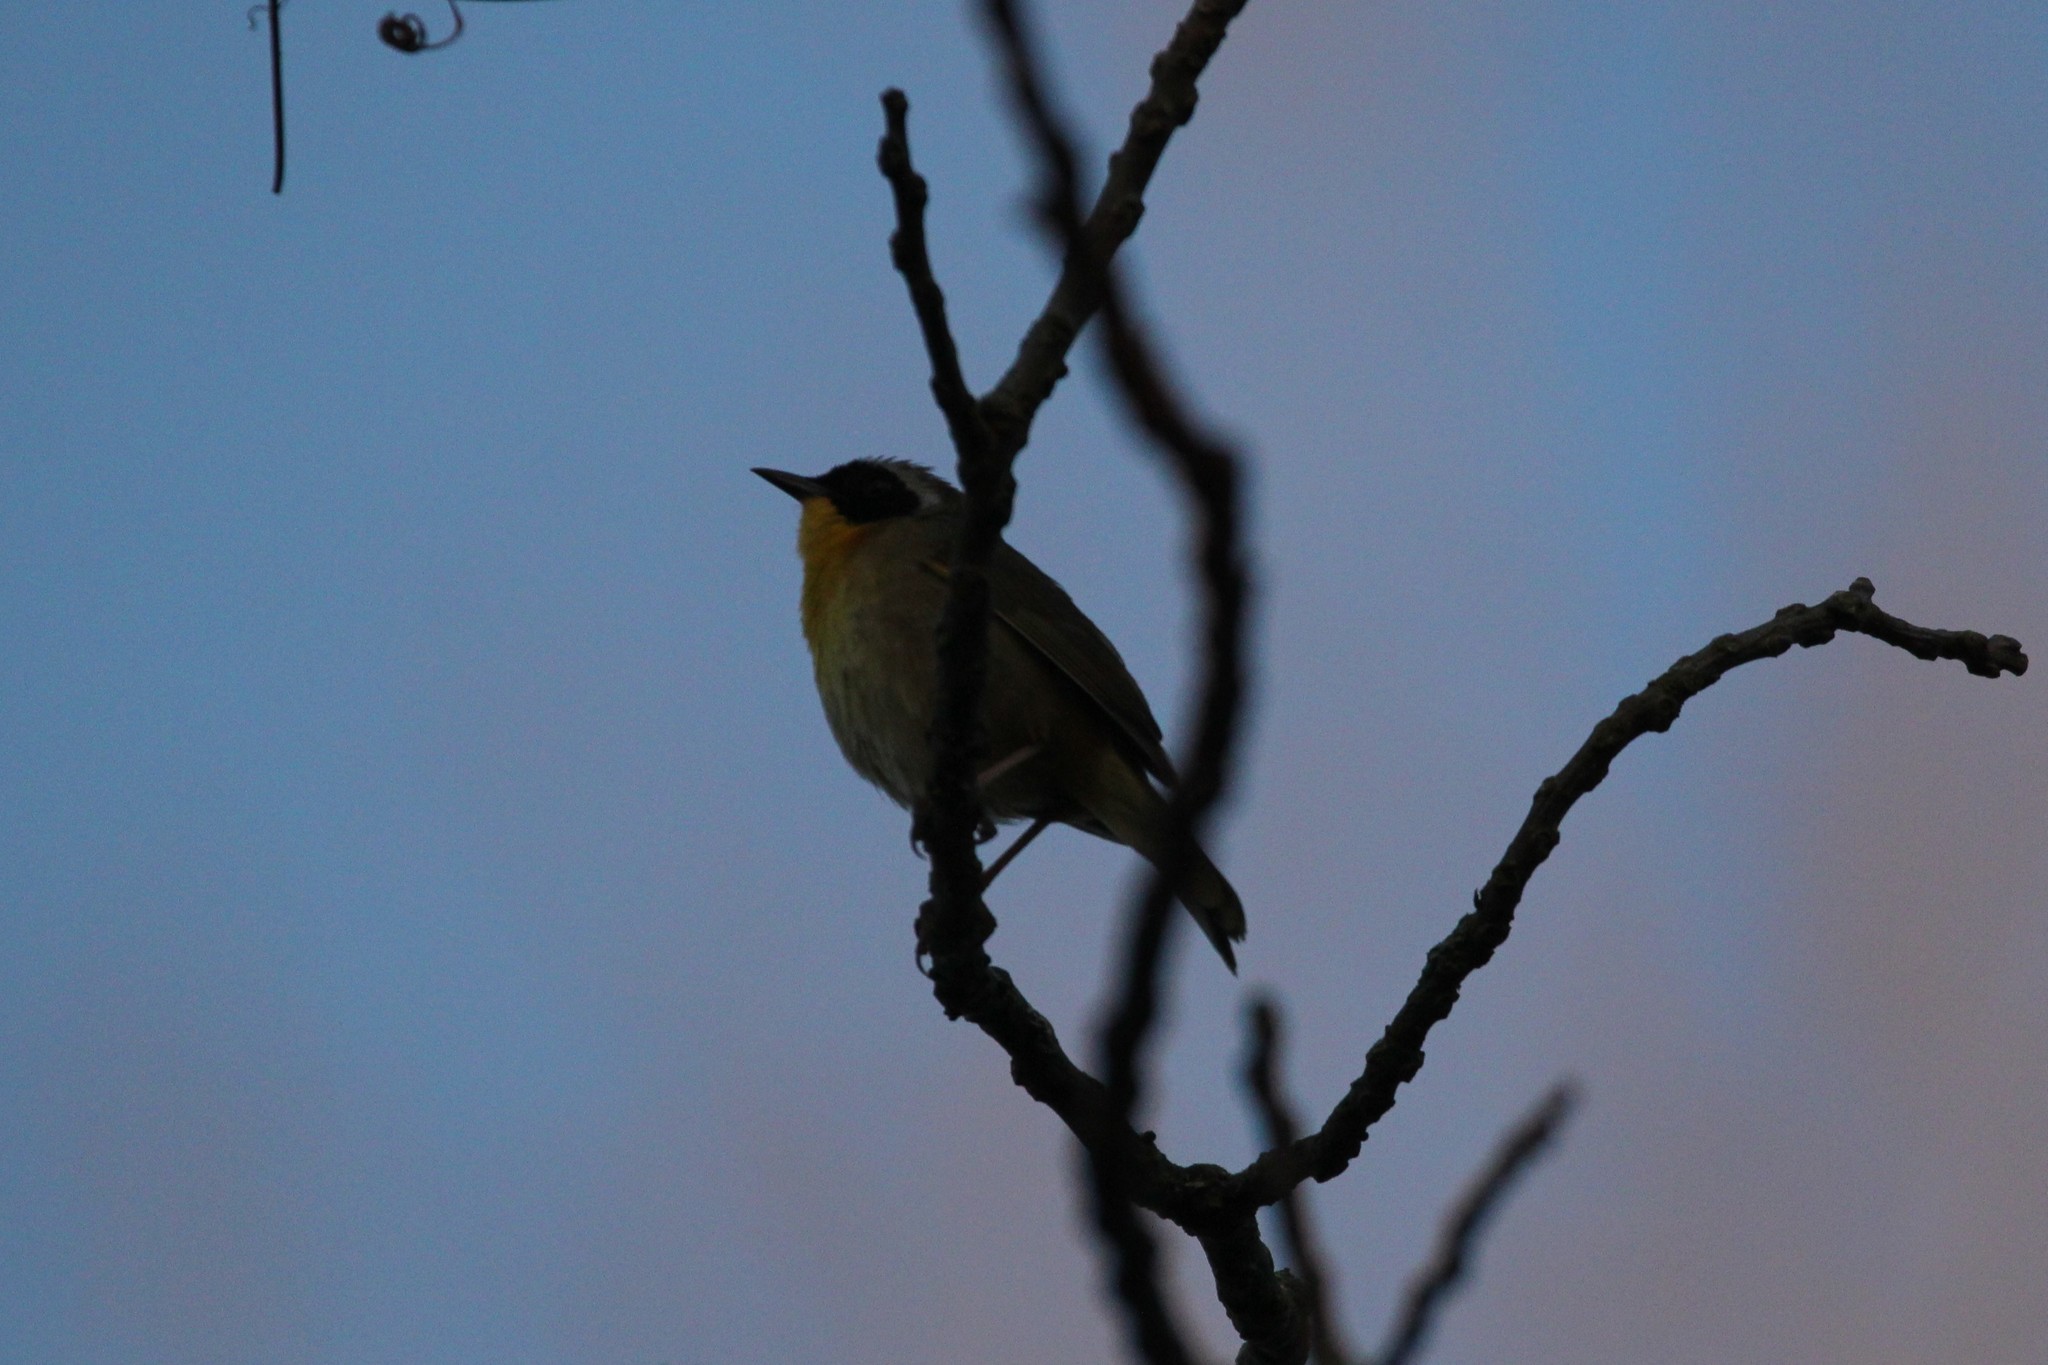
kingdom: Animalia
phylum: Chordata
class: Aves
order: Passeriformes
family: Parulidae
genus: Geothlypis
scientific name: Geothlypis trichas
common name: Common yellowthroat
